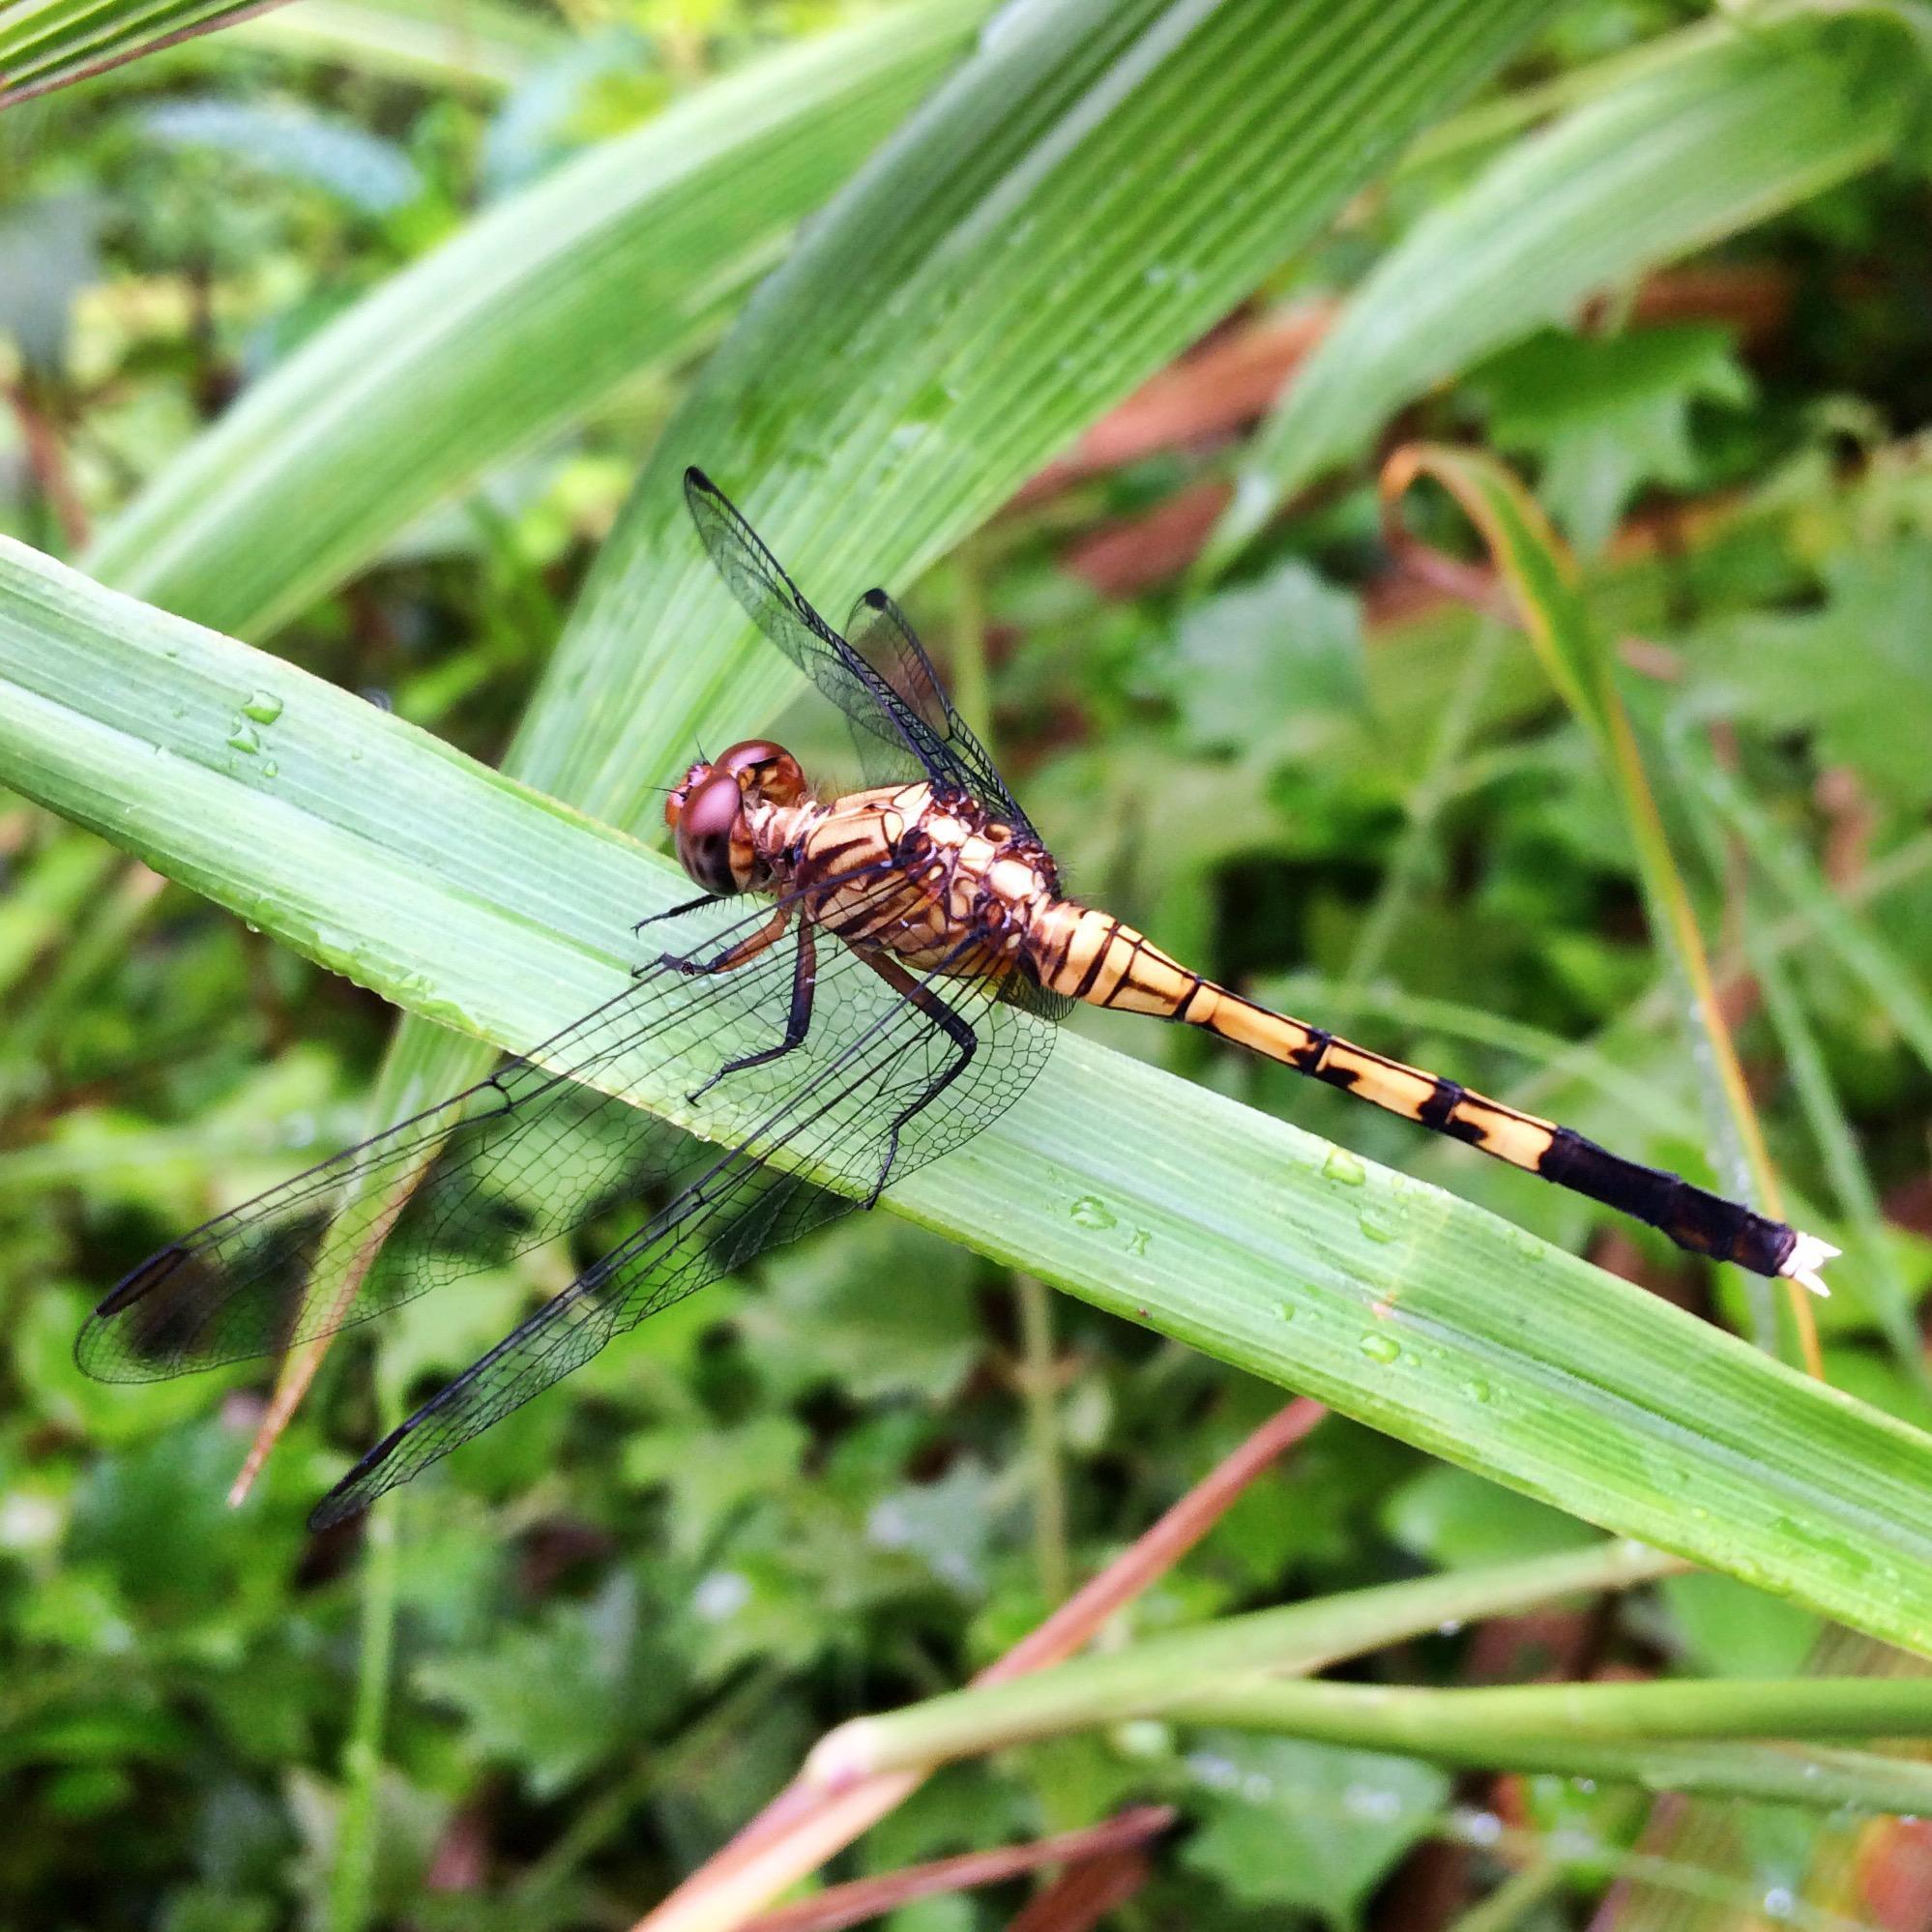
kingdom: Animalia
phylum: Arthropoda
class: Insecta
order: Odonata
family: Libellulidae
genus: Orthetrum
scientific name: Orthetrum julia
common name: Julia skimmer
